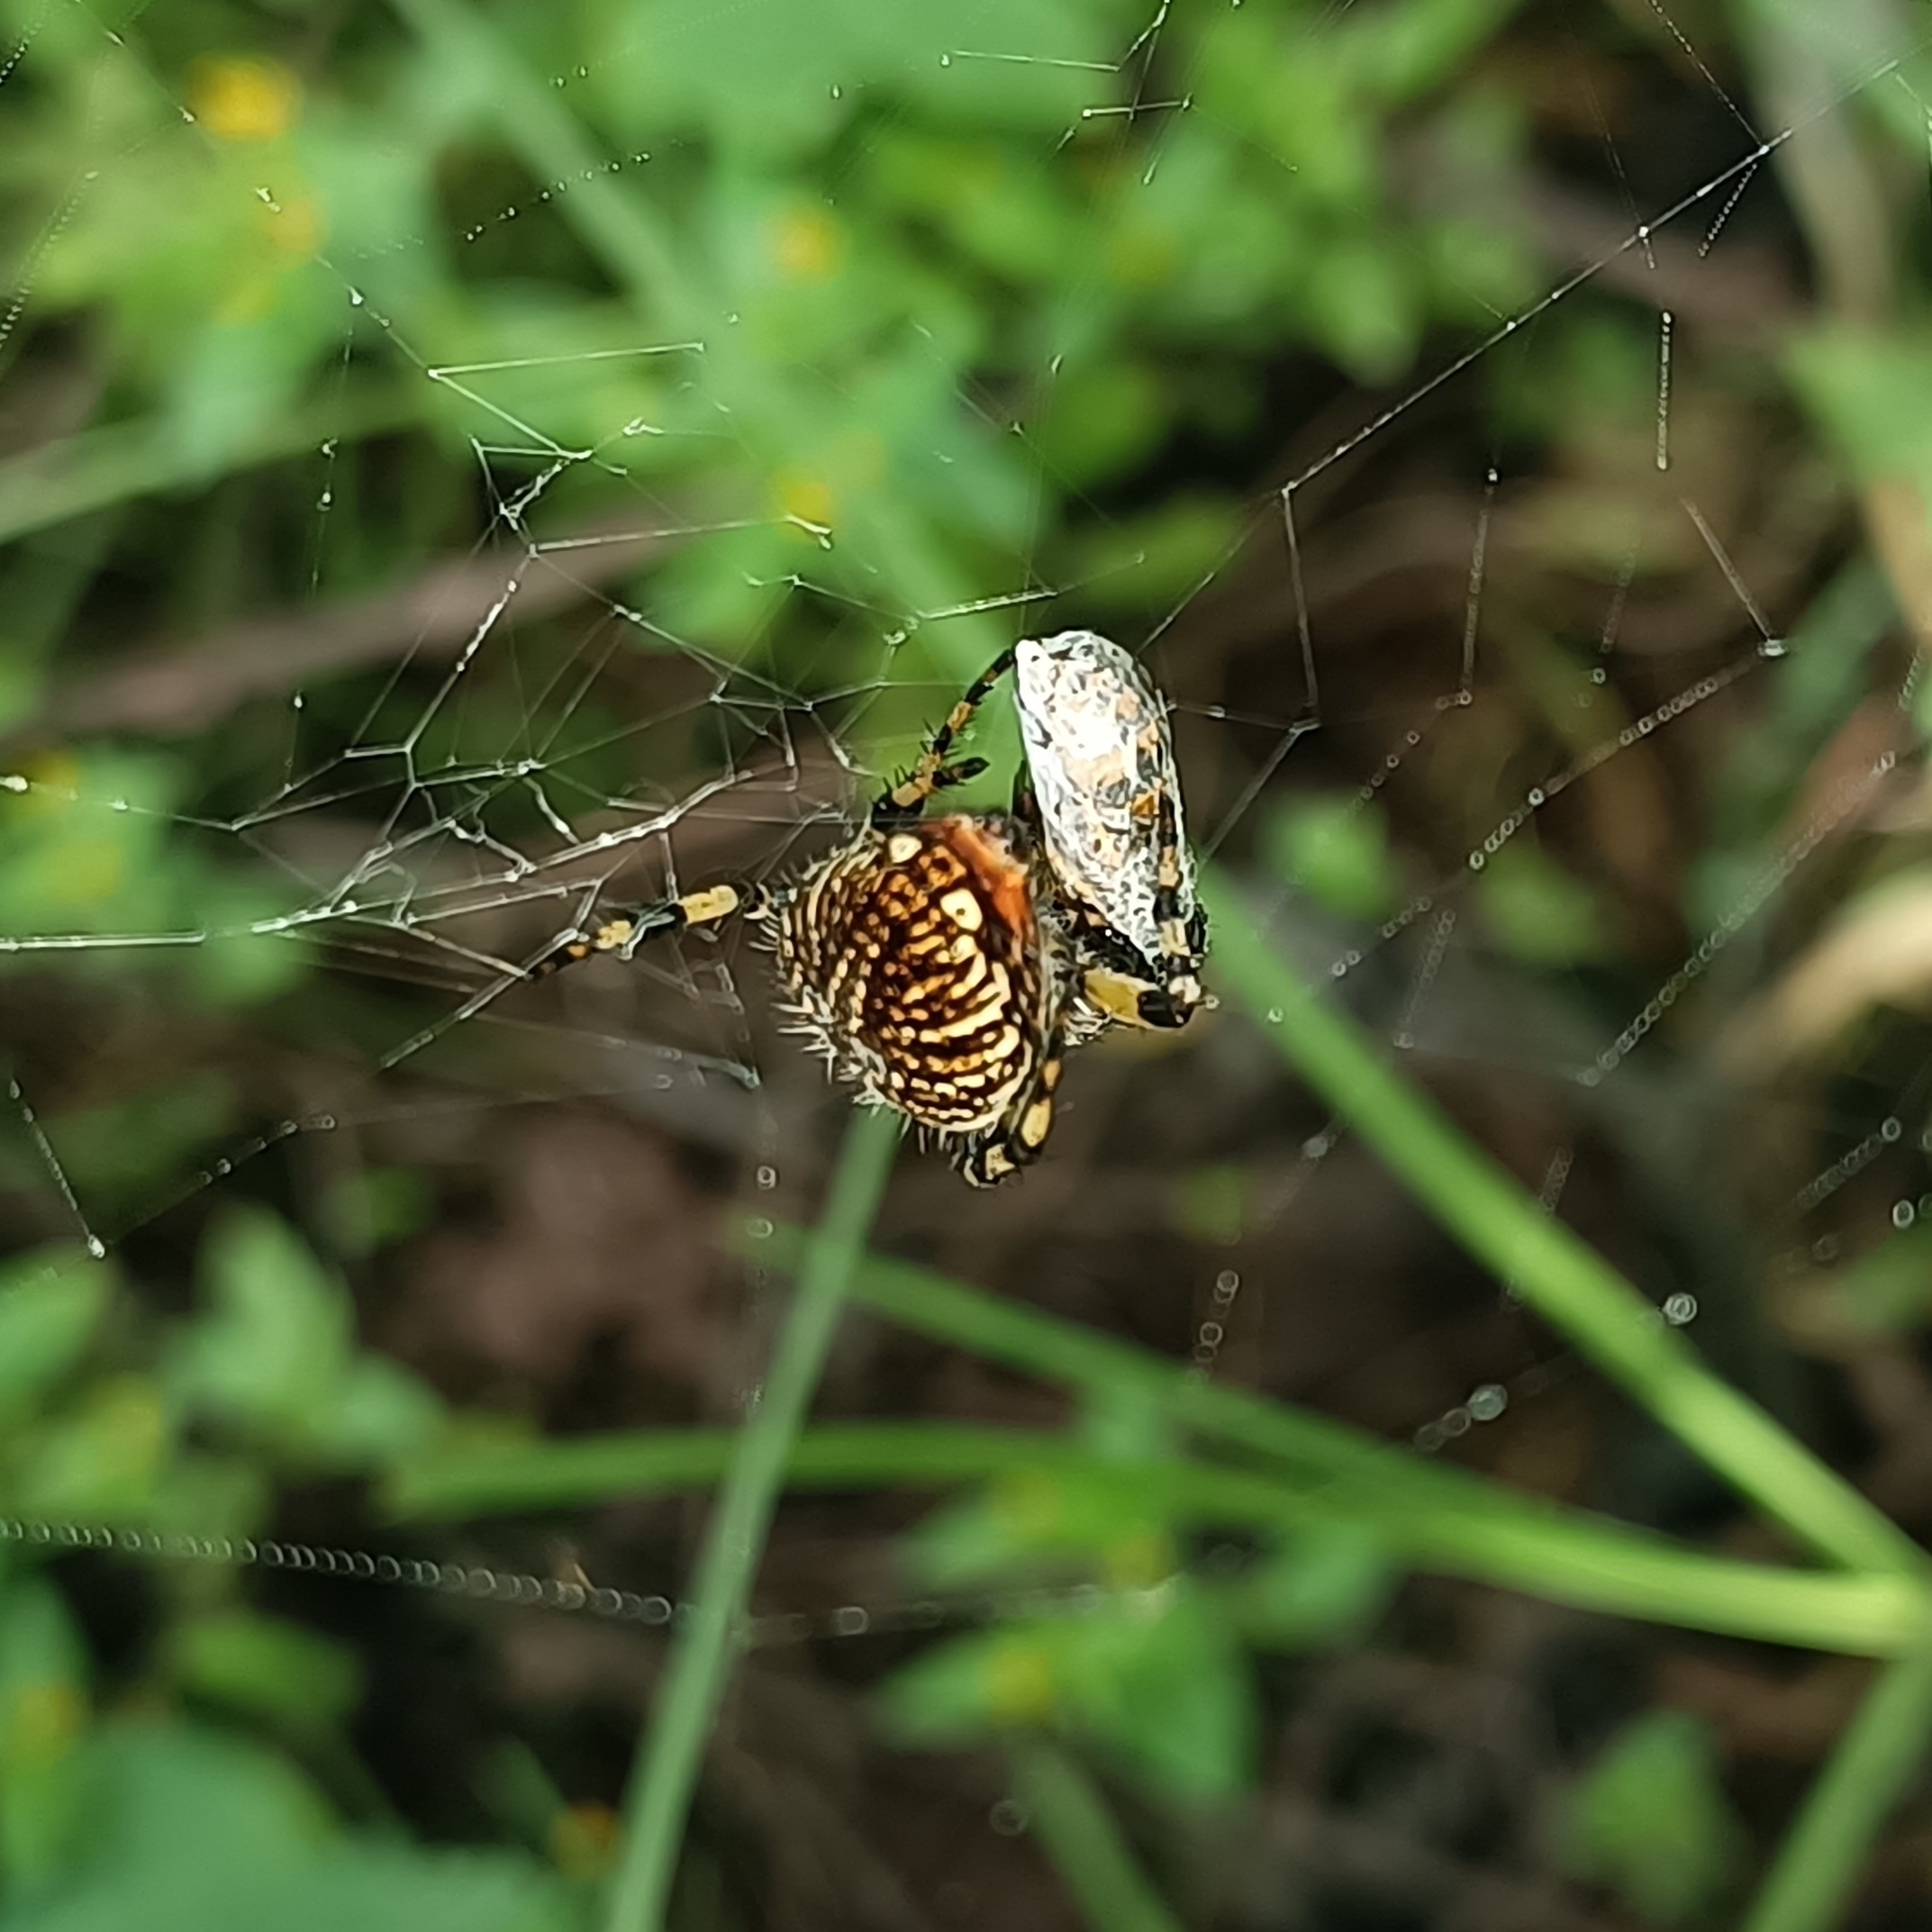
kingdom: Animalia
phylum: Arthropoda
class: Arachnida
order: Araneae
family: Araneidae
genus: Neoscona
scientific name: Neoscona orizabensis
